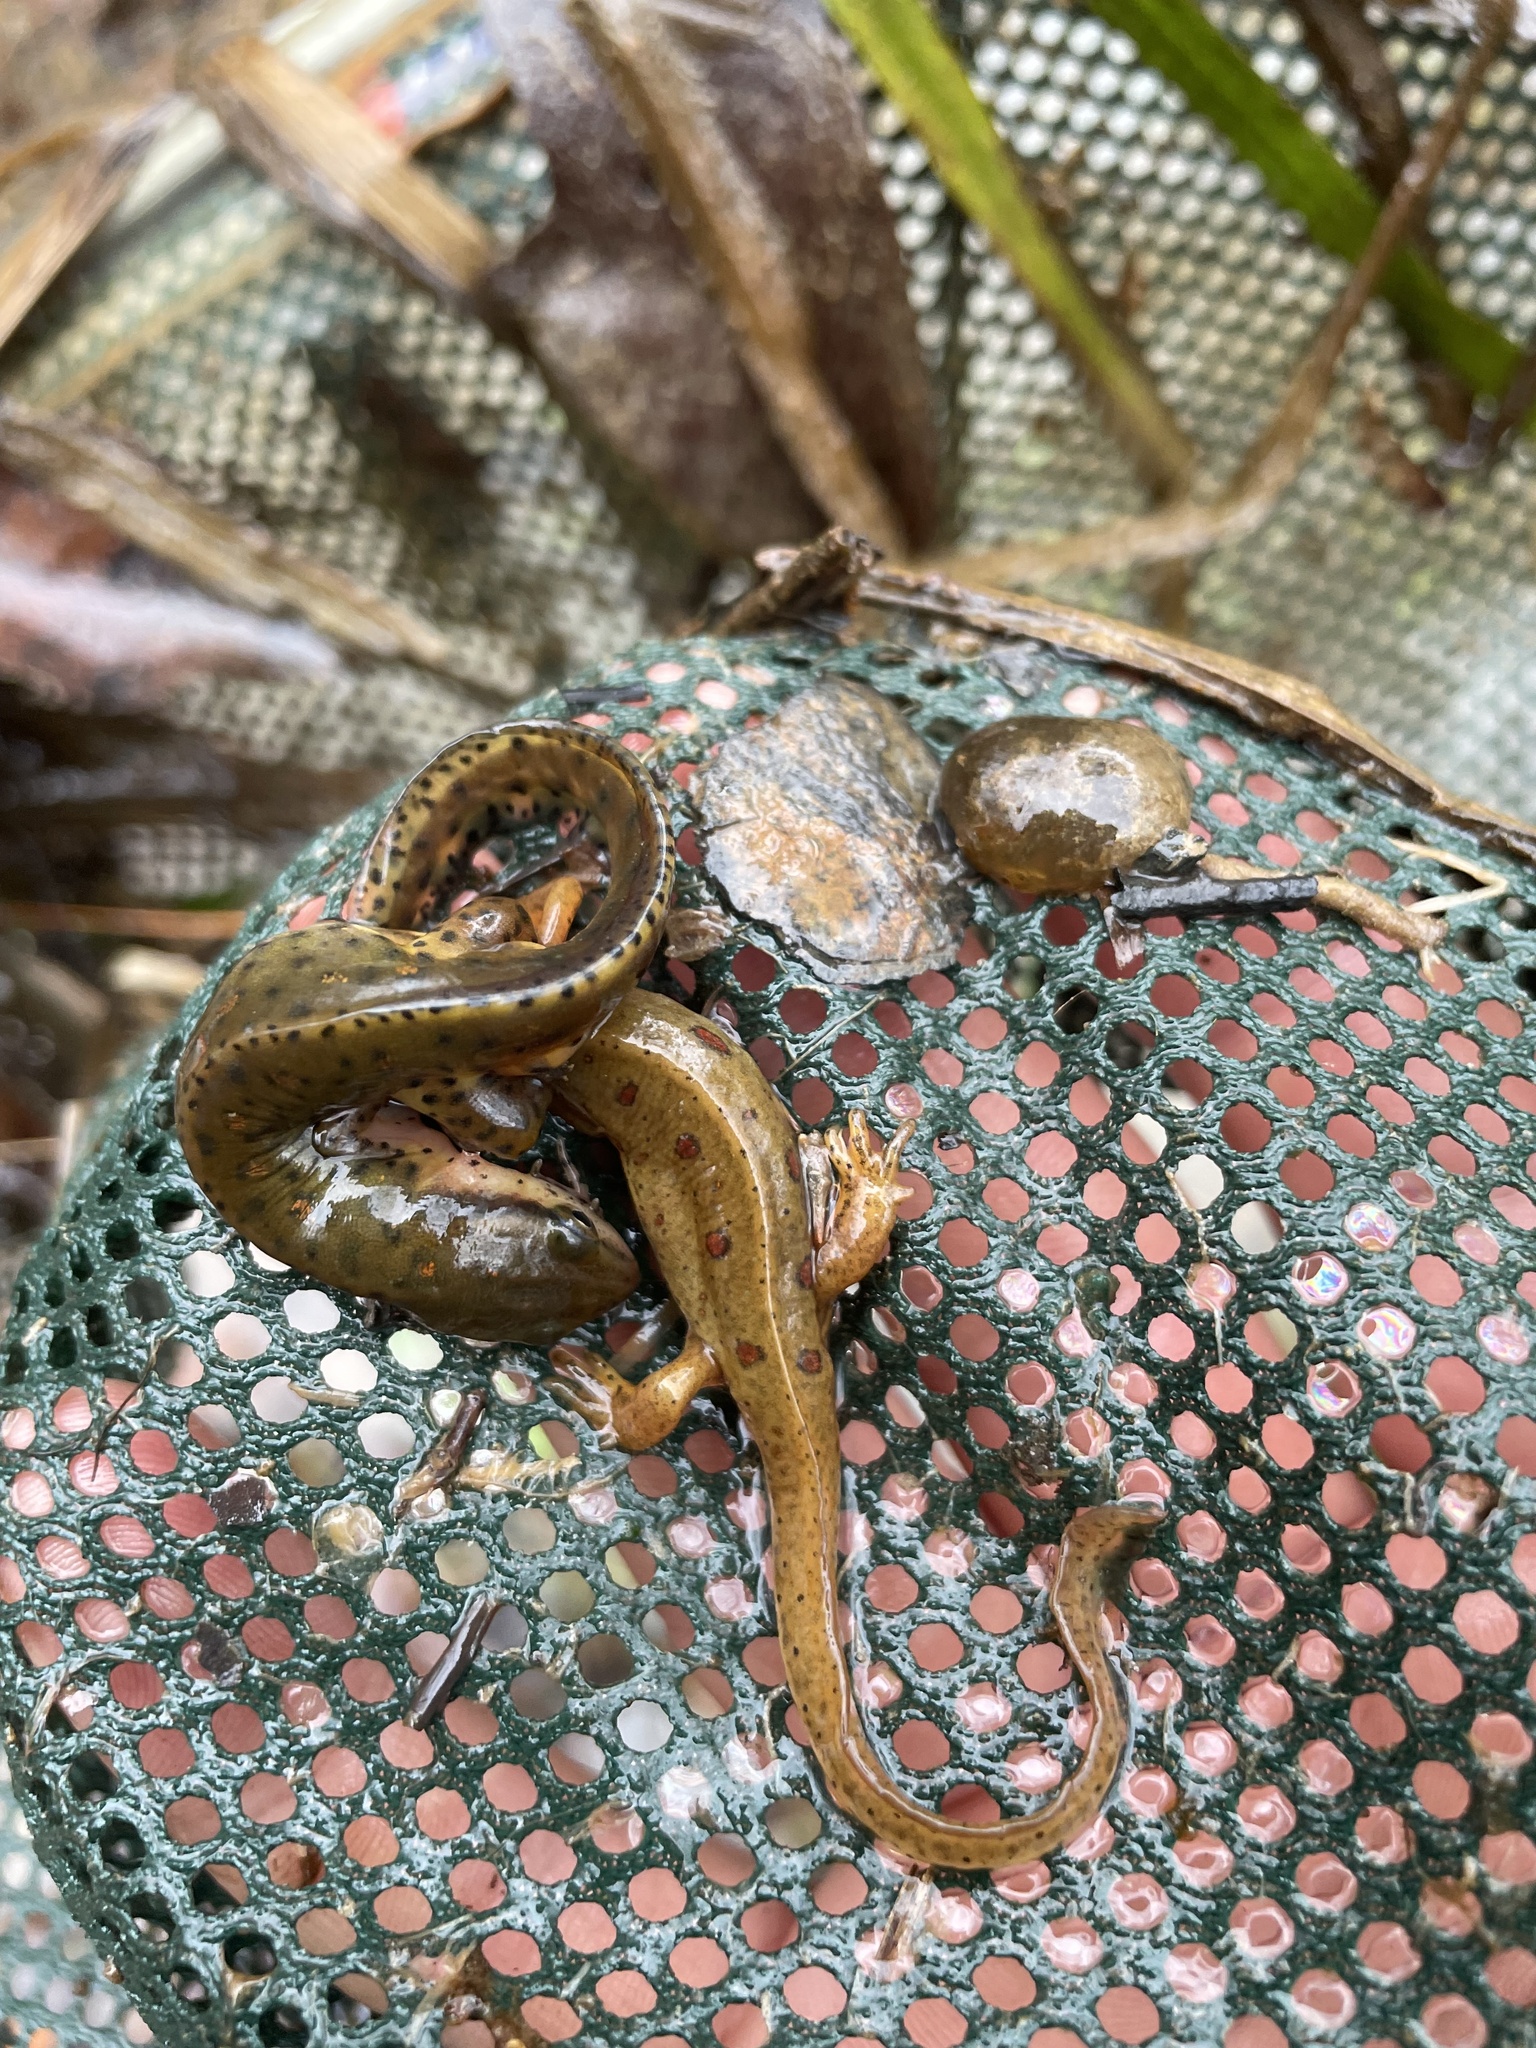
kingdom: Animalia
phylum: Chordata
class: Amphibia
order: Caudata
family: Salamandridae
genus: Notophthalmus
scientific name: Notophthalmus viridescens
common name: Eastern newt
